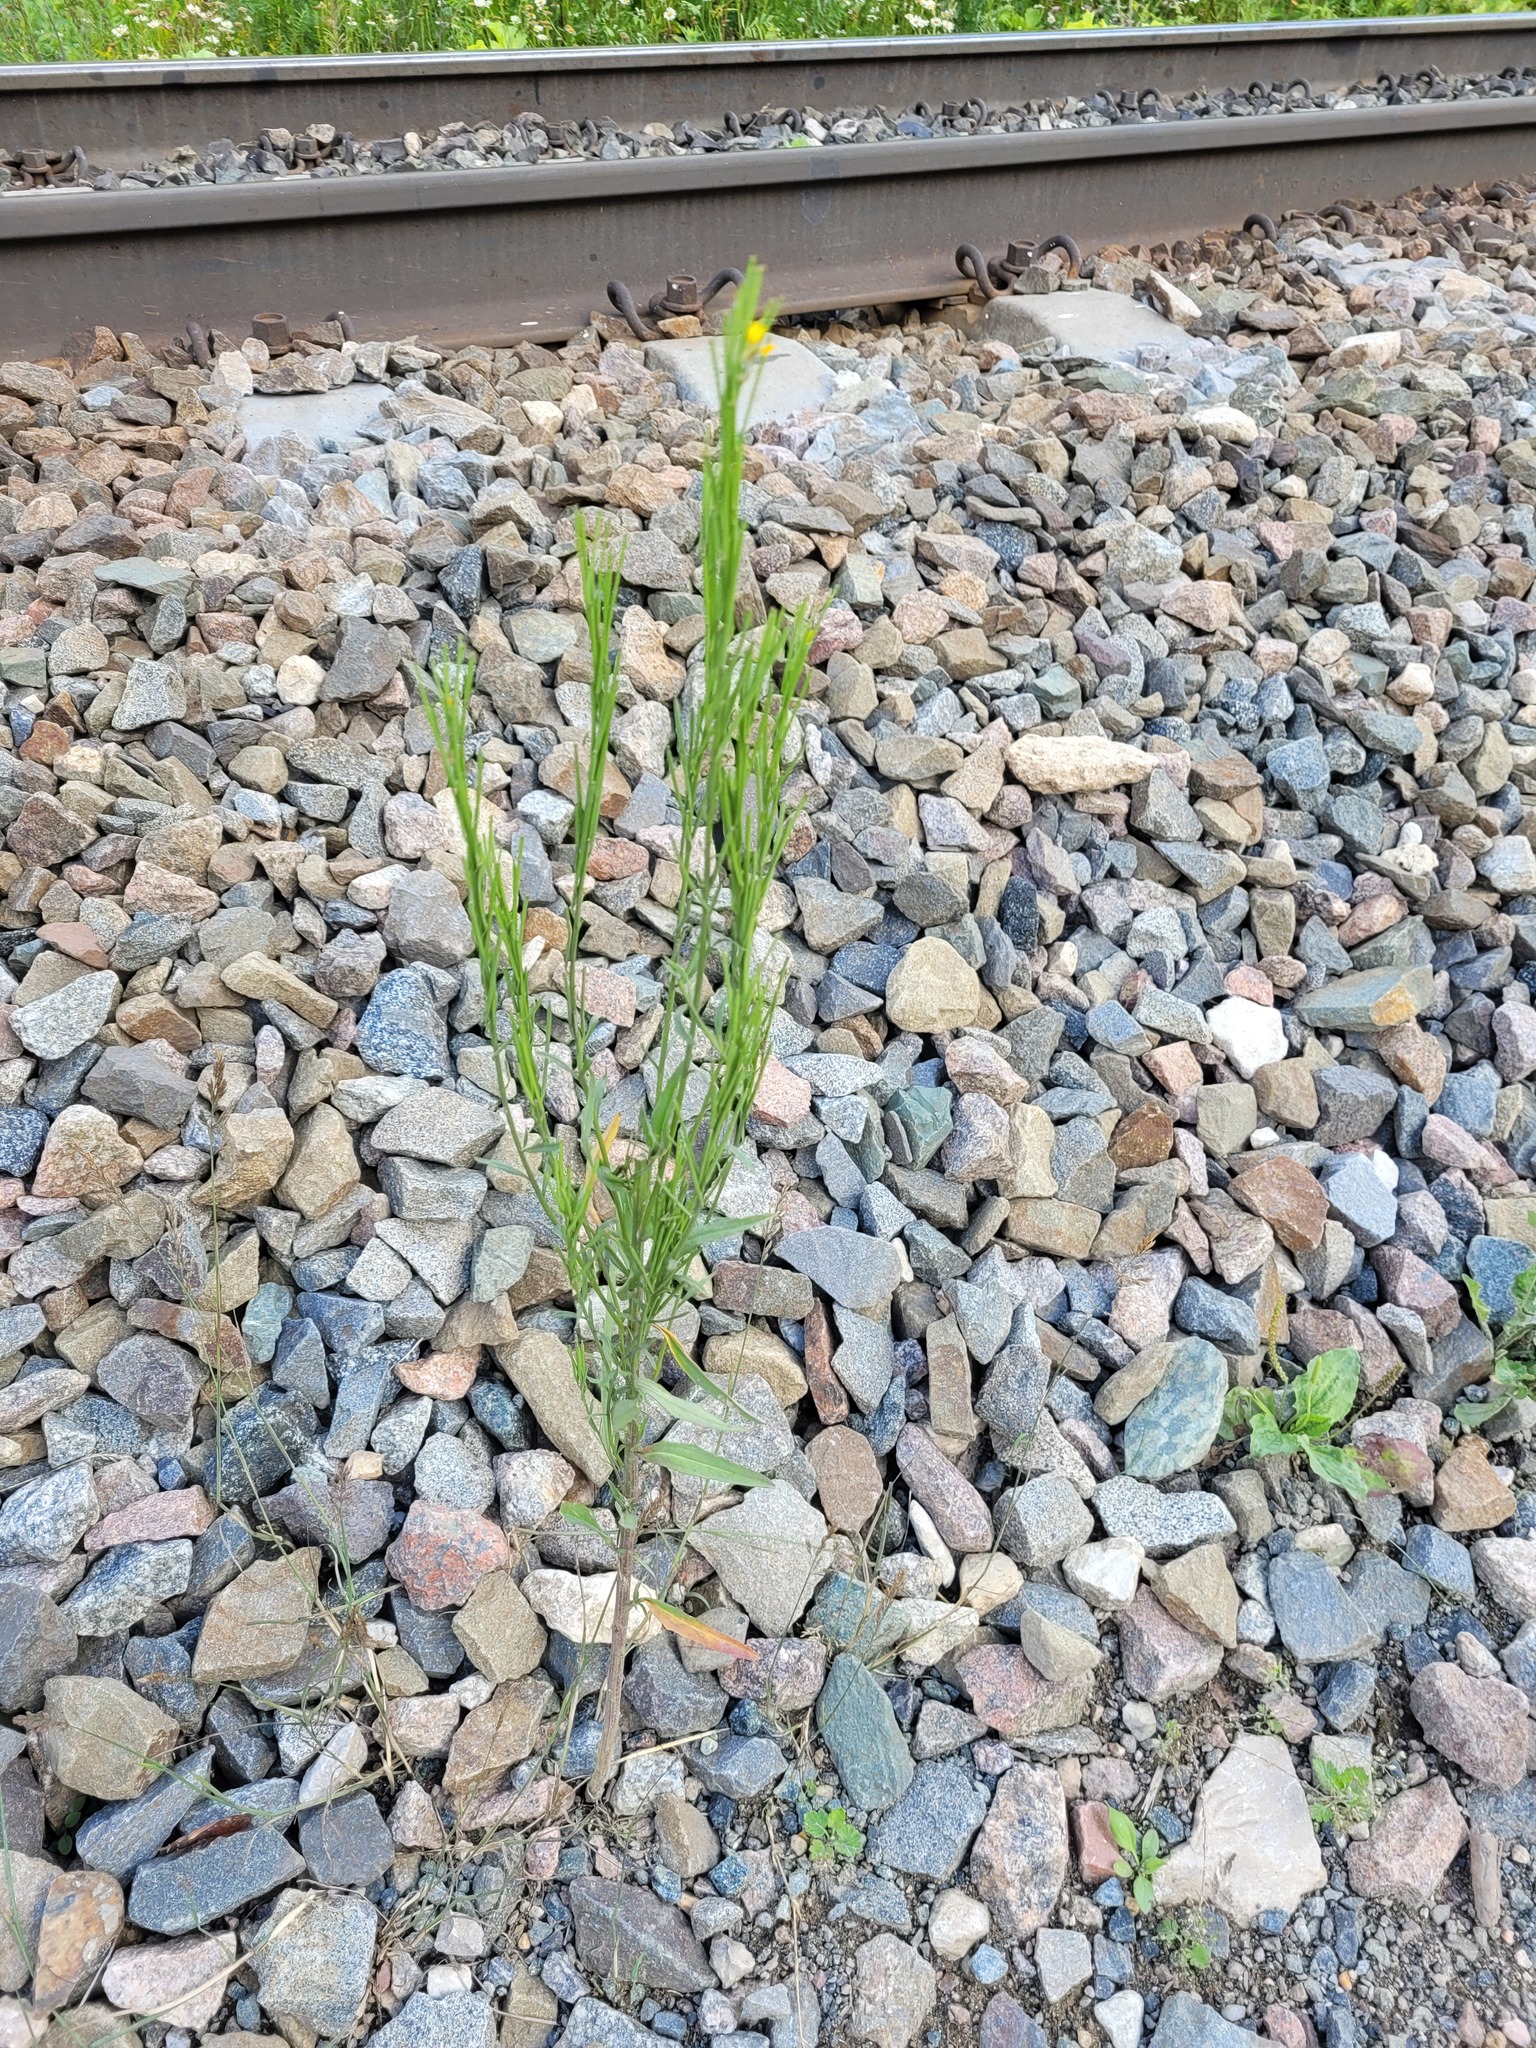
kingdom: Plantae
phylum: Tracheophyta
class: Magnoliopsida
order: Brassicales
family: Brassicaceae
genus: Erysimum
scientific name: Erysimum hieraciifolium
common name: European wallflower
